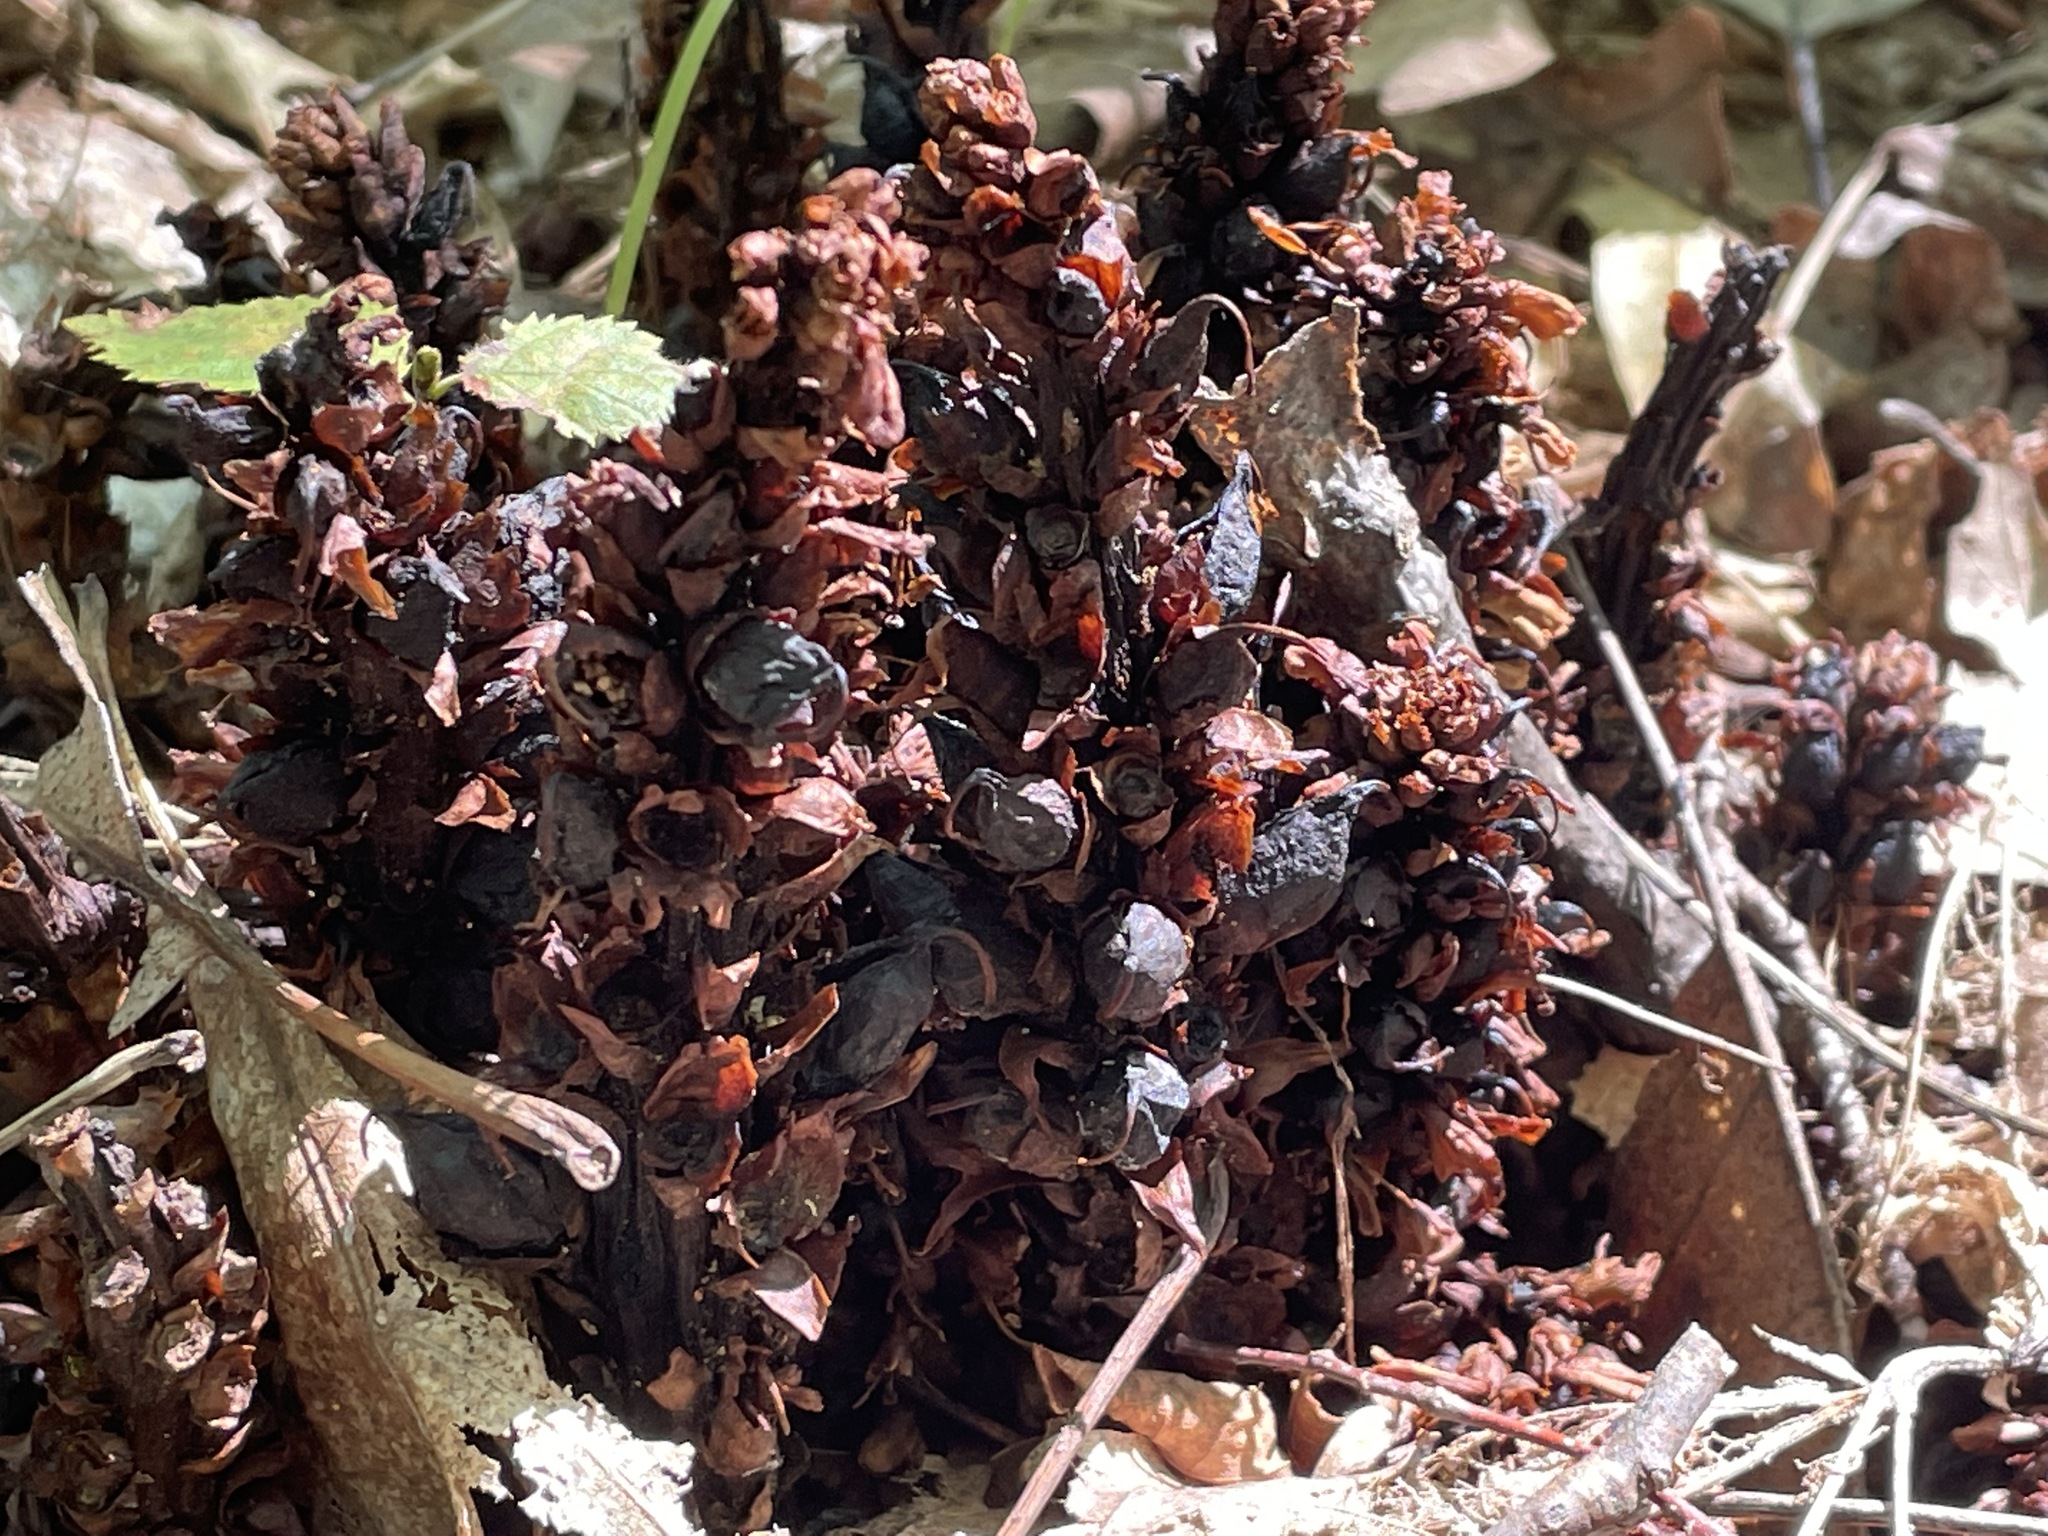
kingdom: Plantae
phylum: Tracheophyta
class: Magnoliopsida
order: Lamiales
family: Orobanchaceae
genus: Conopholis
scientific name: Conopholis americana
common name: American cancer-root
